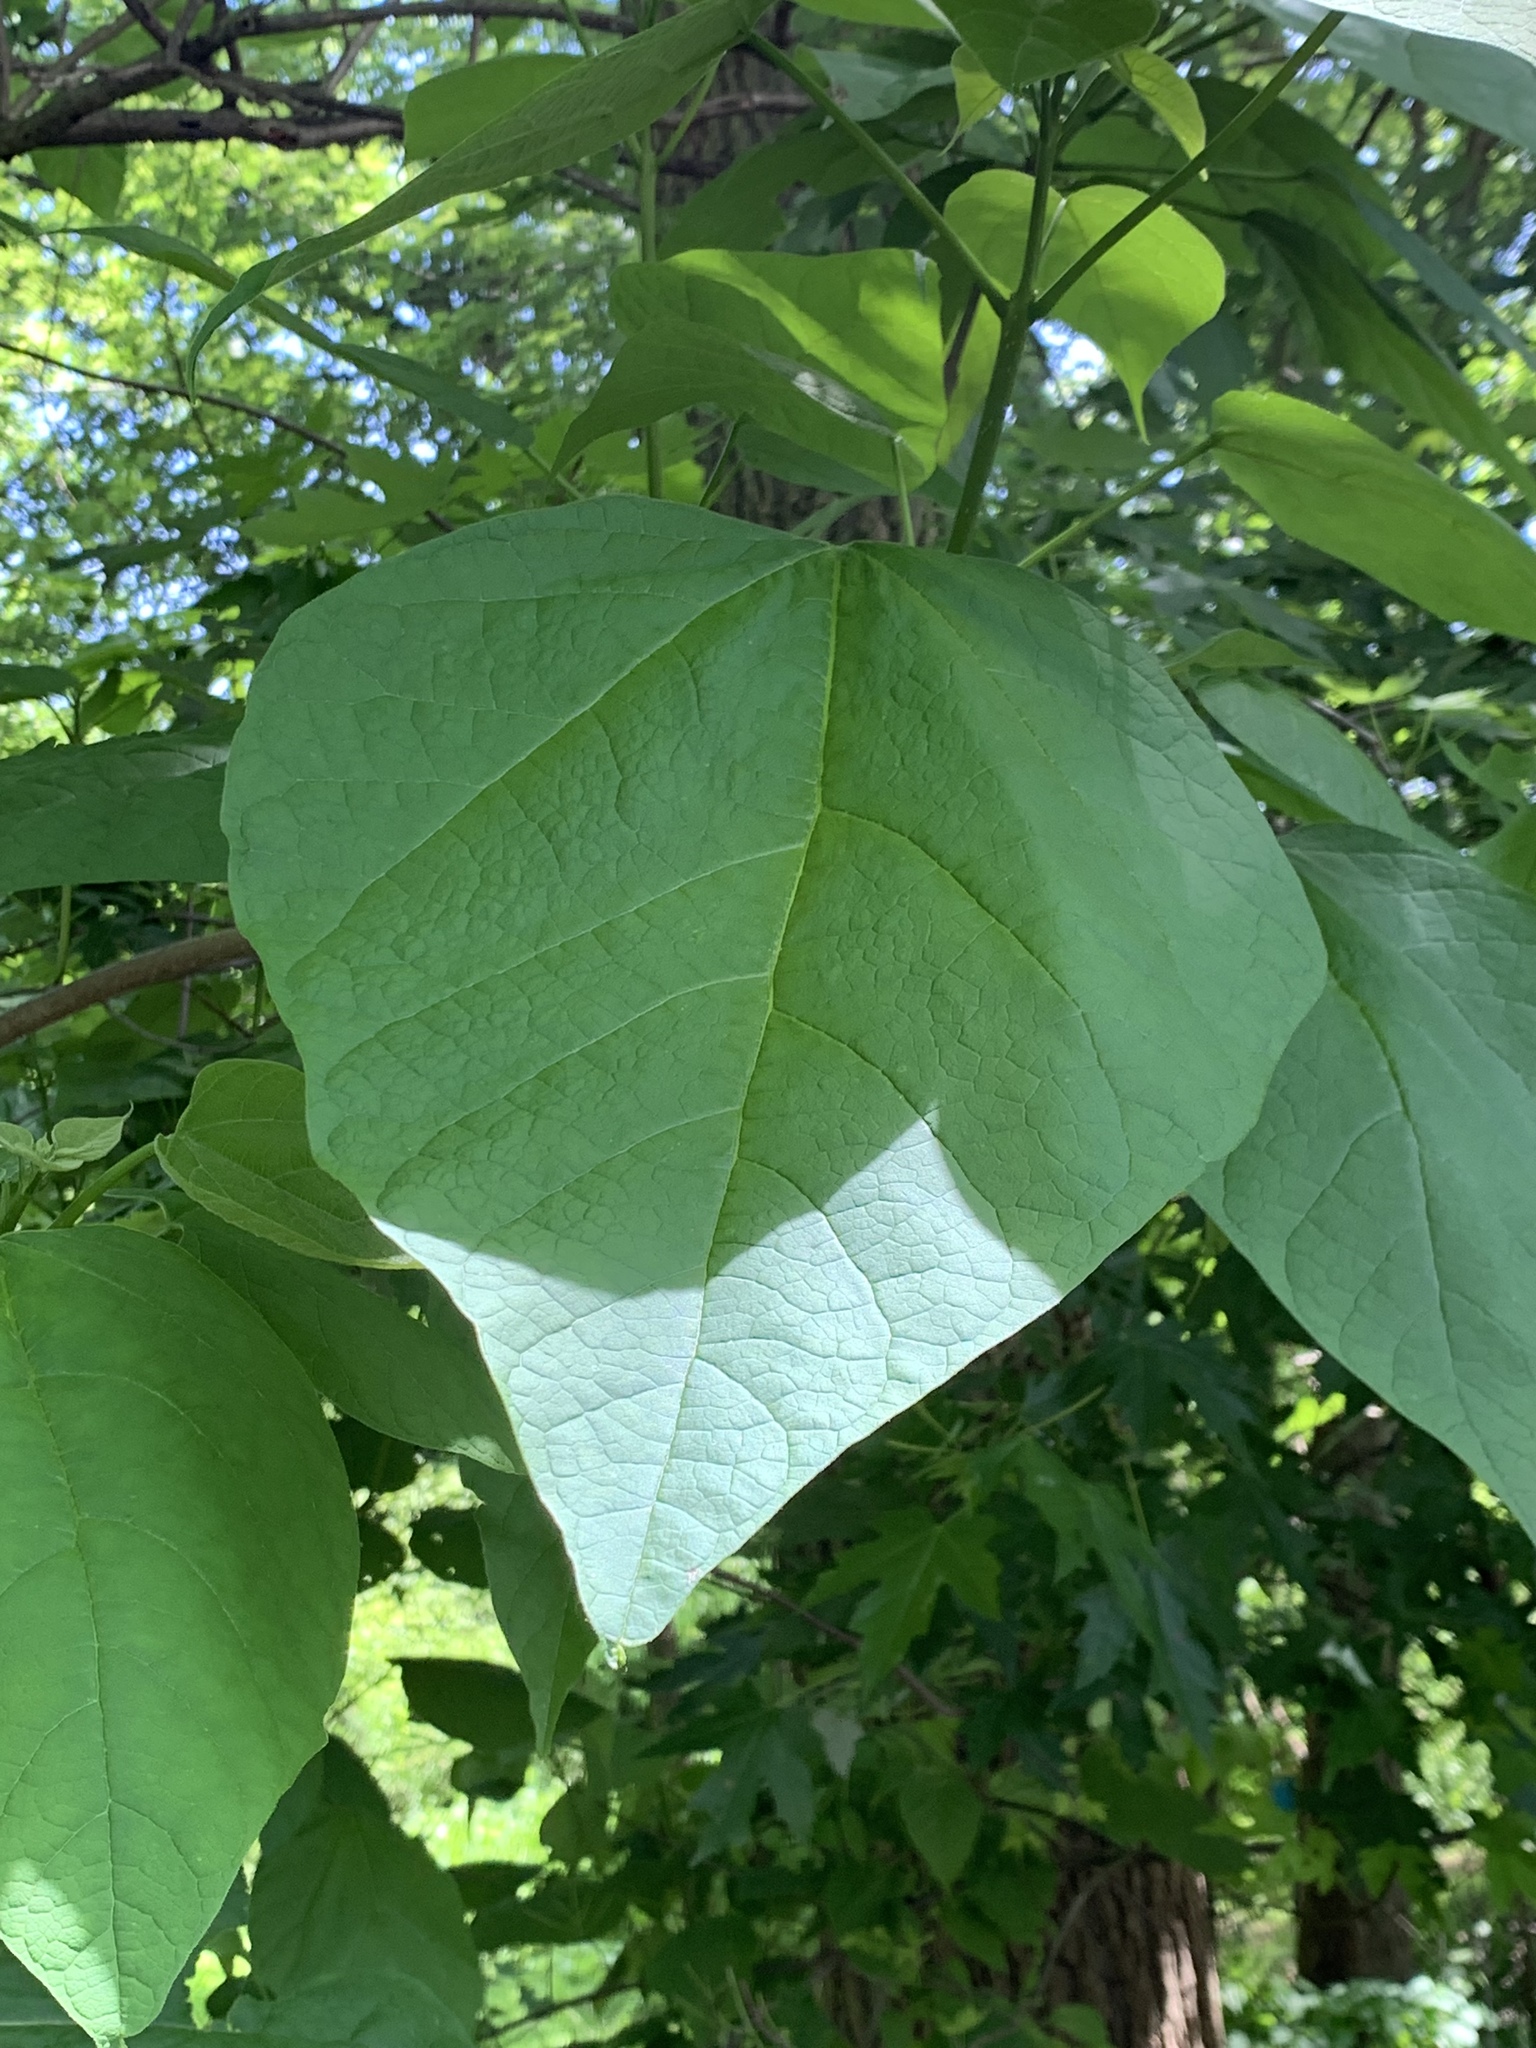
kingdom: Plantae
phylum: Tracheophyta
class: Magnoliopsida
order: Lamiales
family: Bignoniaceae
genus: Catalpa
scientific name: Catalpa speciosa
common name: Northern catalpa
